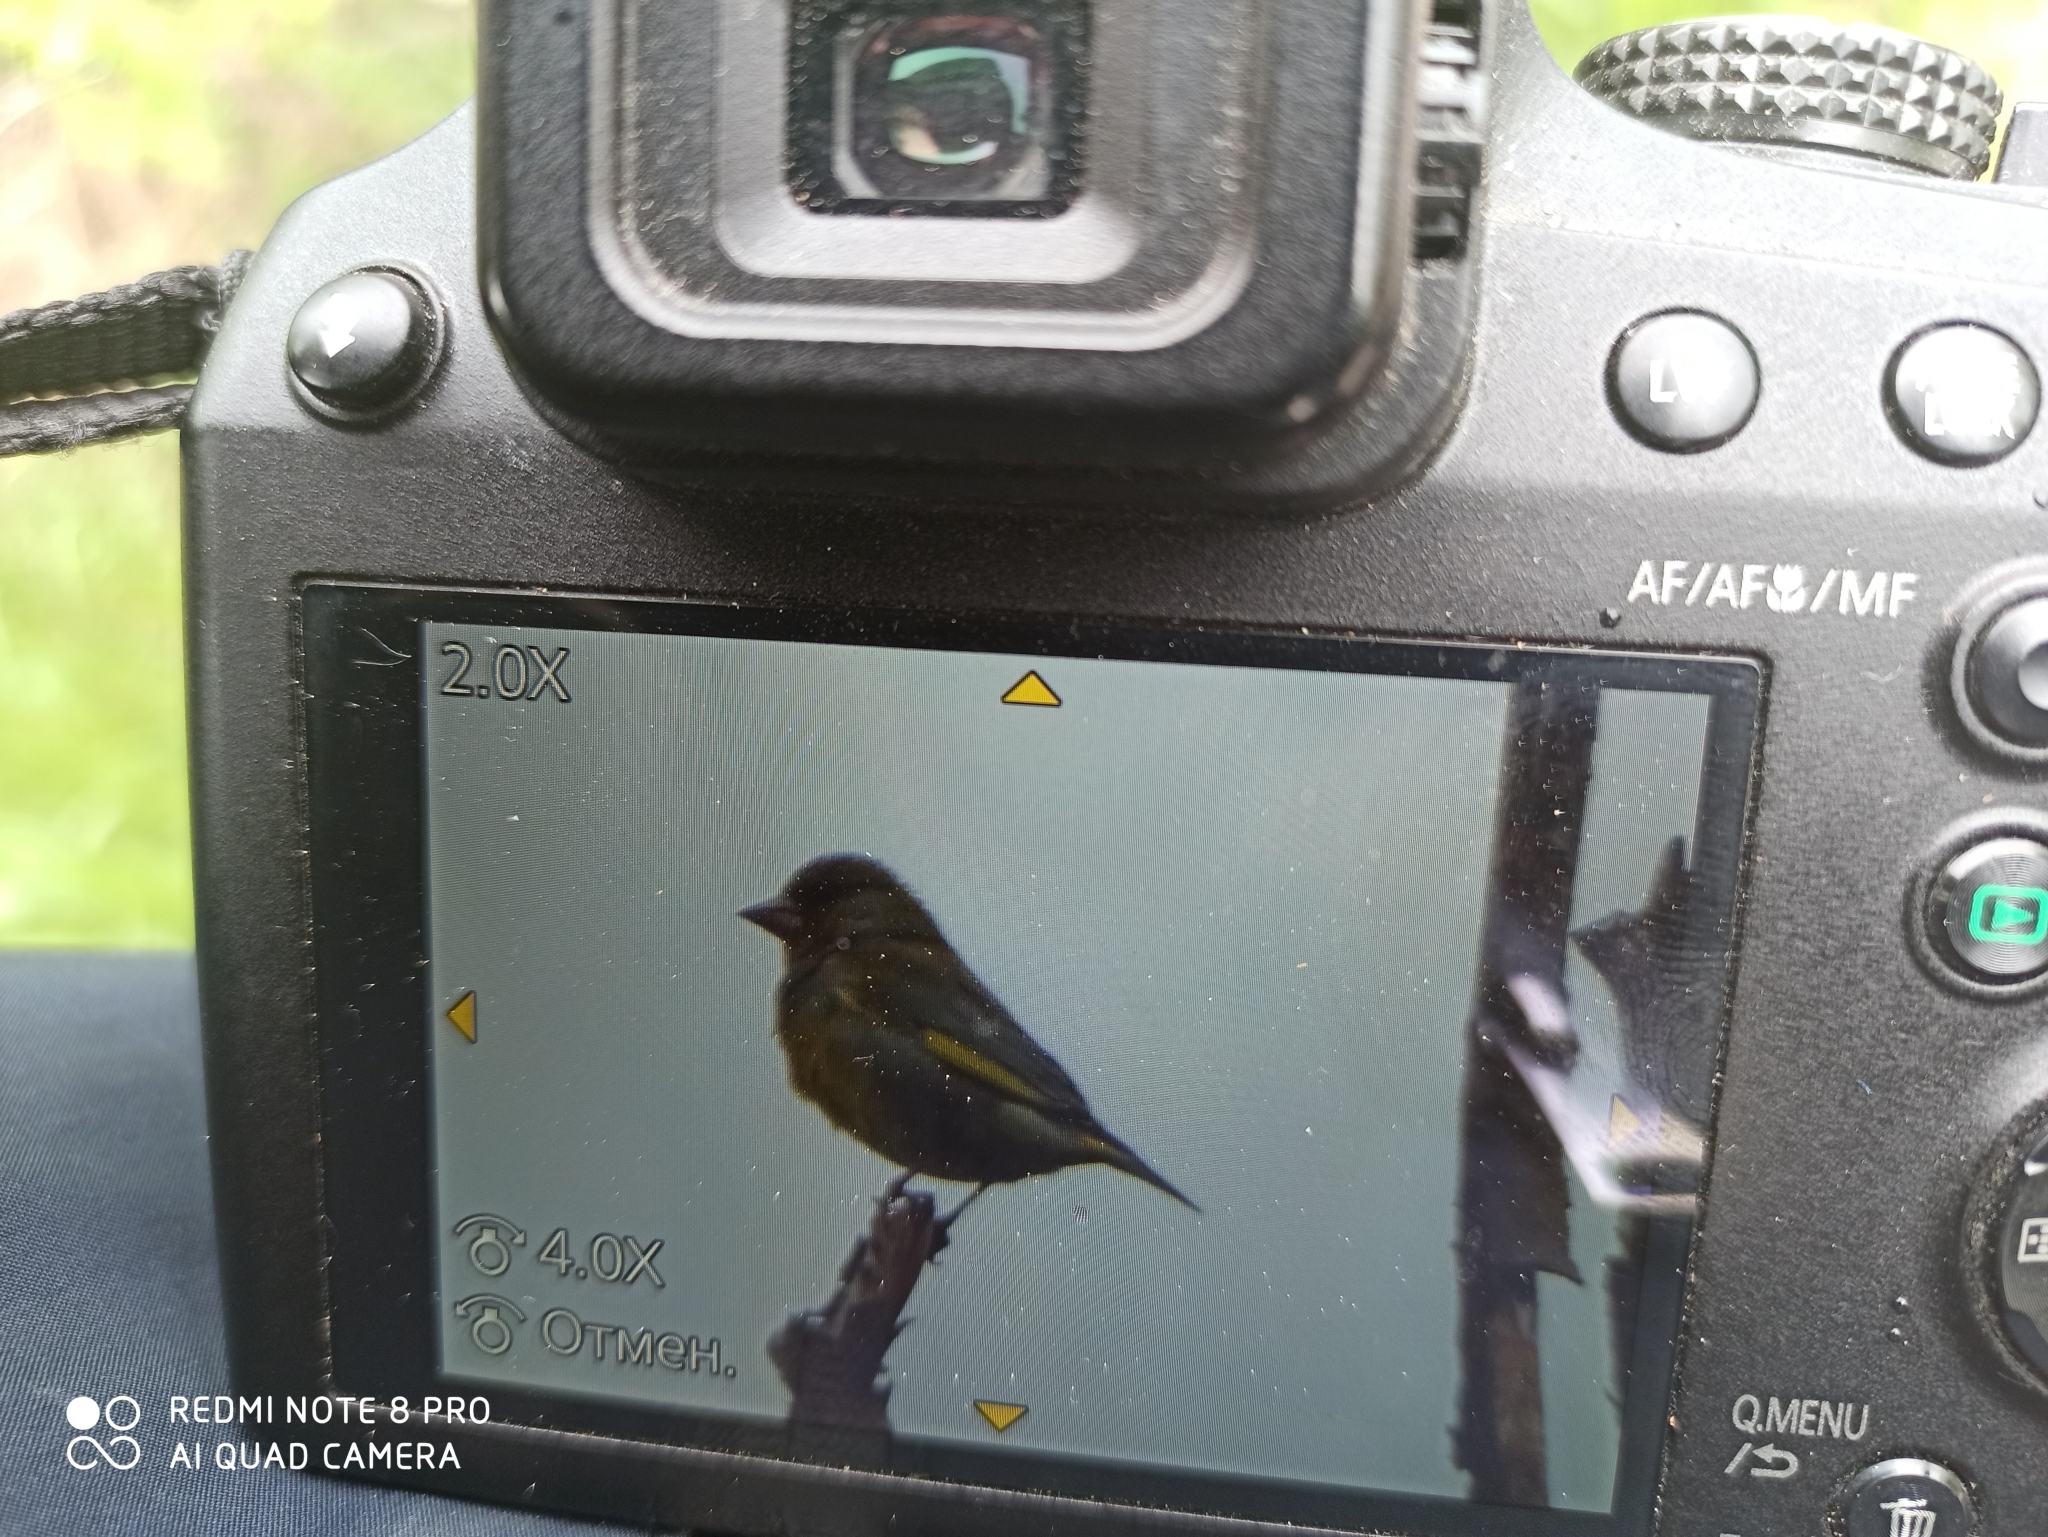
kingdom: Plantae
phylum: Tracheophyta
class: Liliopsida
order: Poales
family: Poaceae
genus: Chloris
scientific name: Chloris chloris
